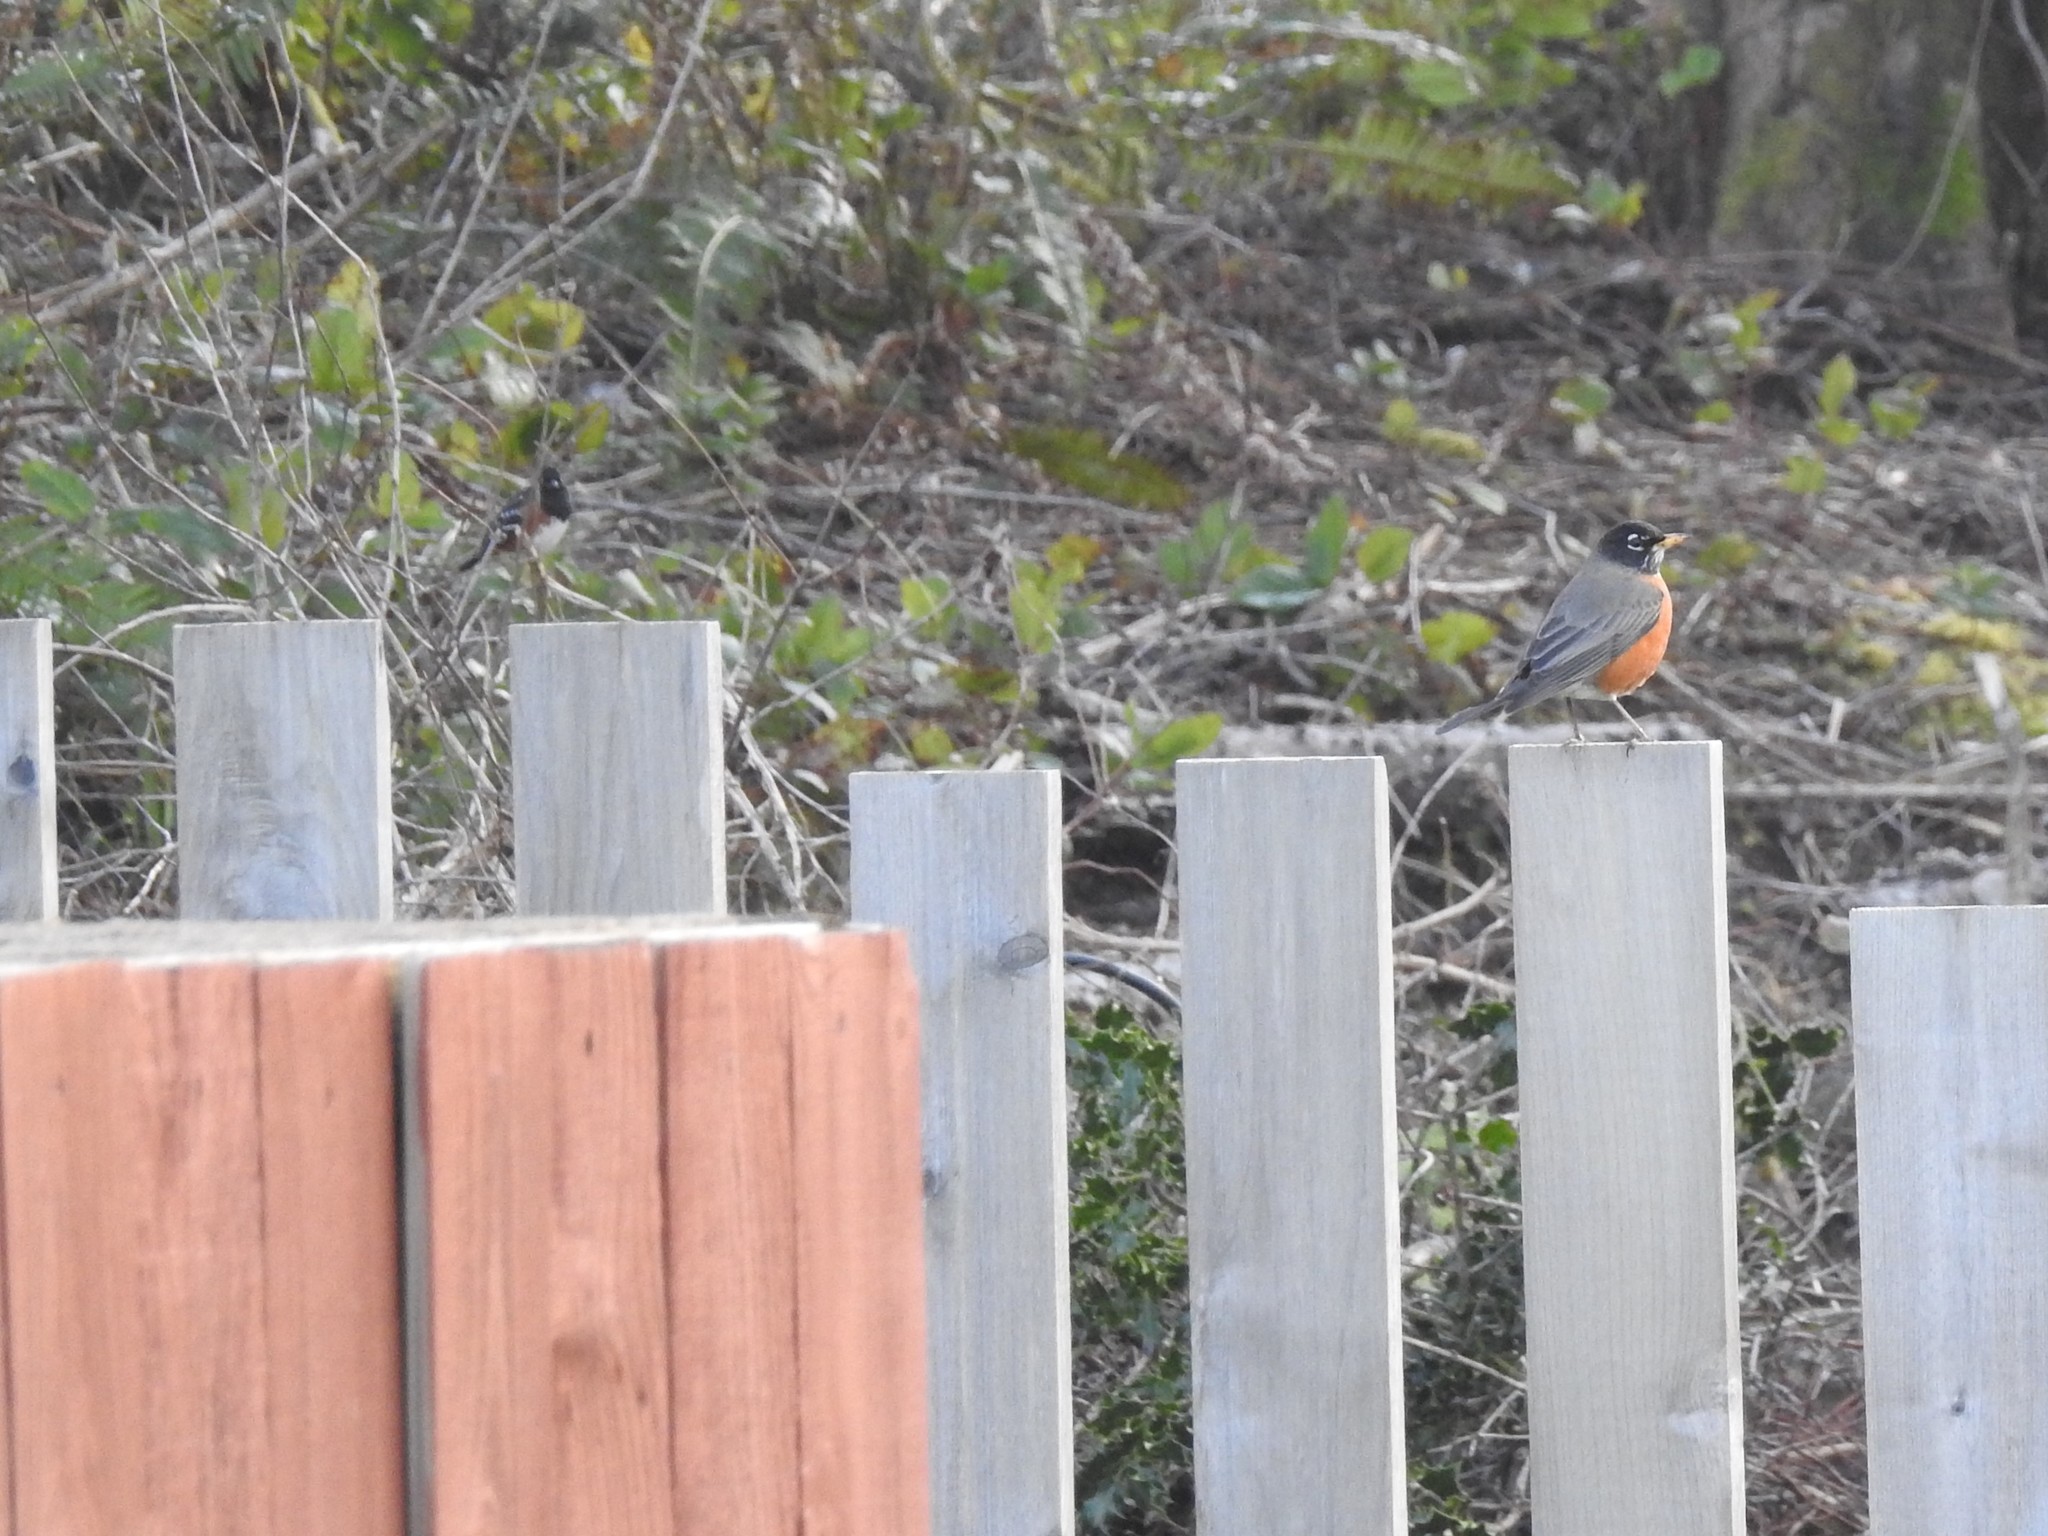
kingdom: Animalia
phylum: Chordata
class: Aves
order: Passeriformes
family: Turdidae
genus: Turdus
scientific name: Turdus migratorius
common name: American robin
